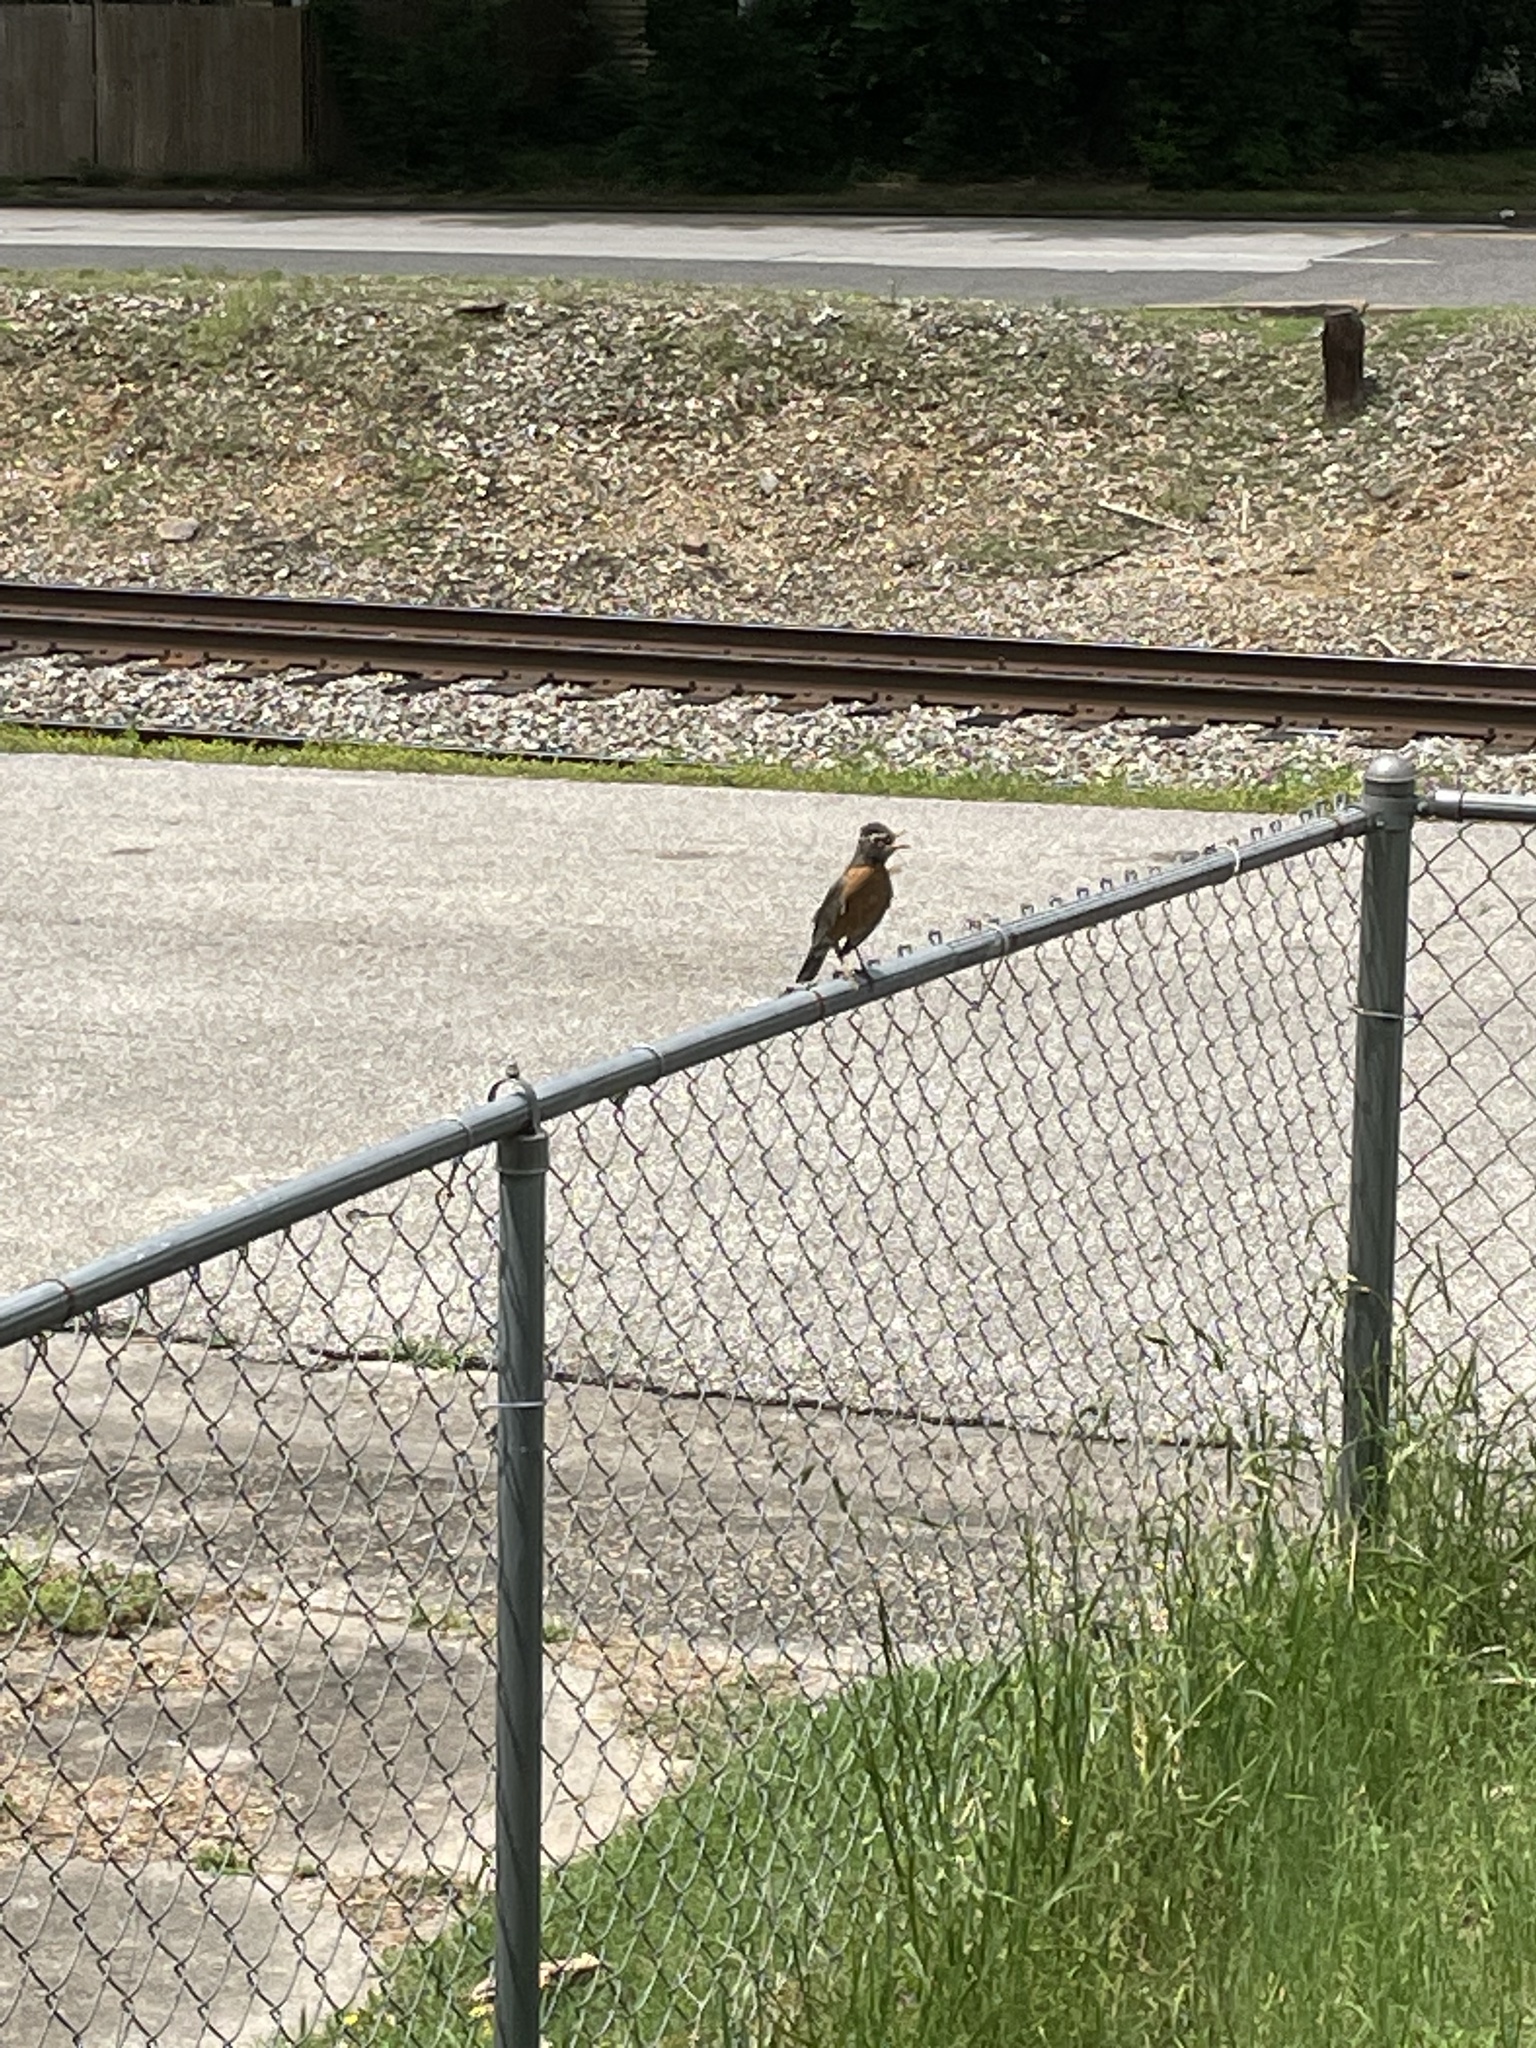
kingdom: Animalia
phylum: Chordata
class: Aves
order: Passeriformes
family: Turdidae
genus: Turdus
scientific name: Turdus migratorius
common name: American robin
